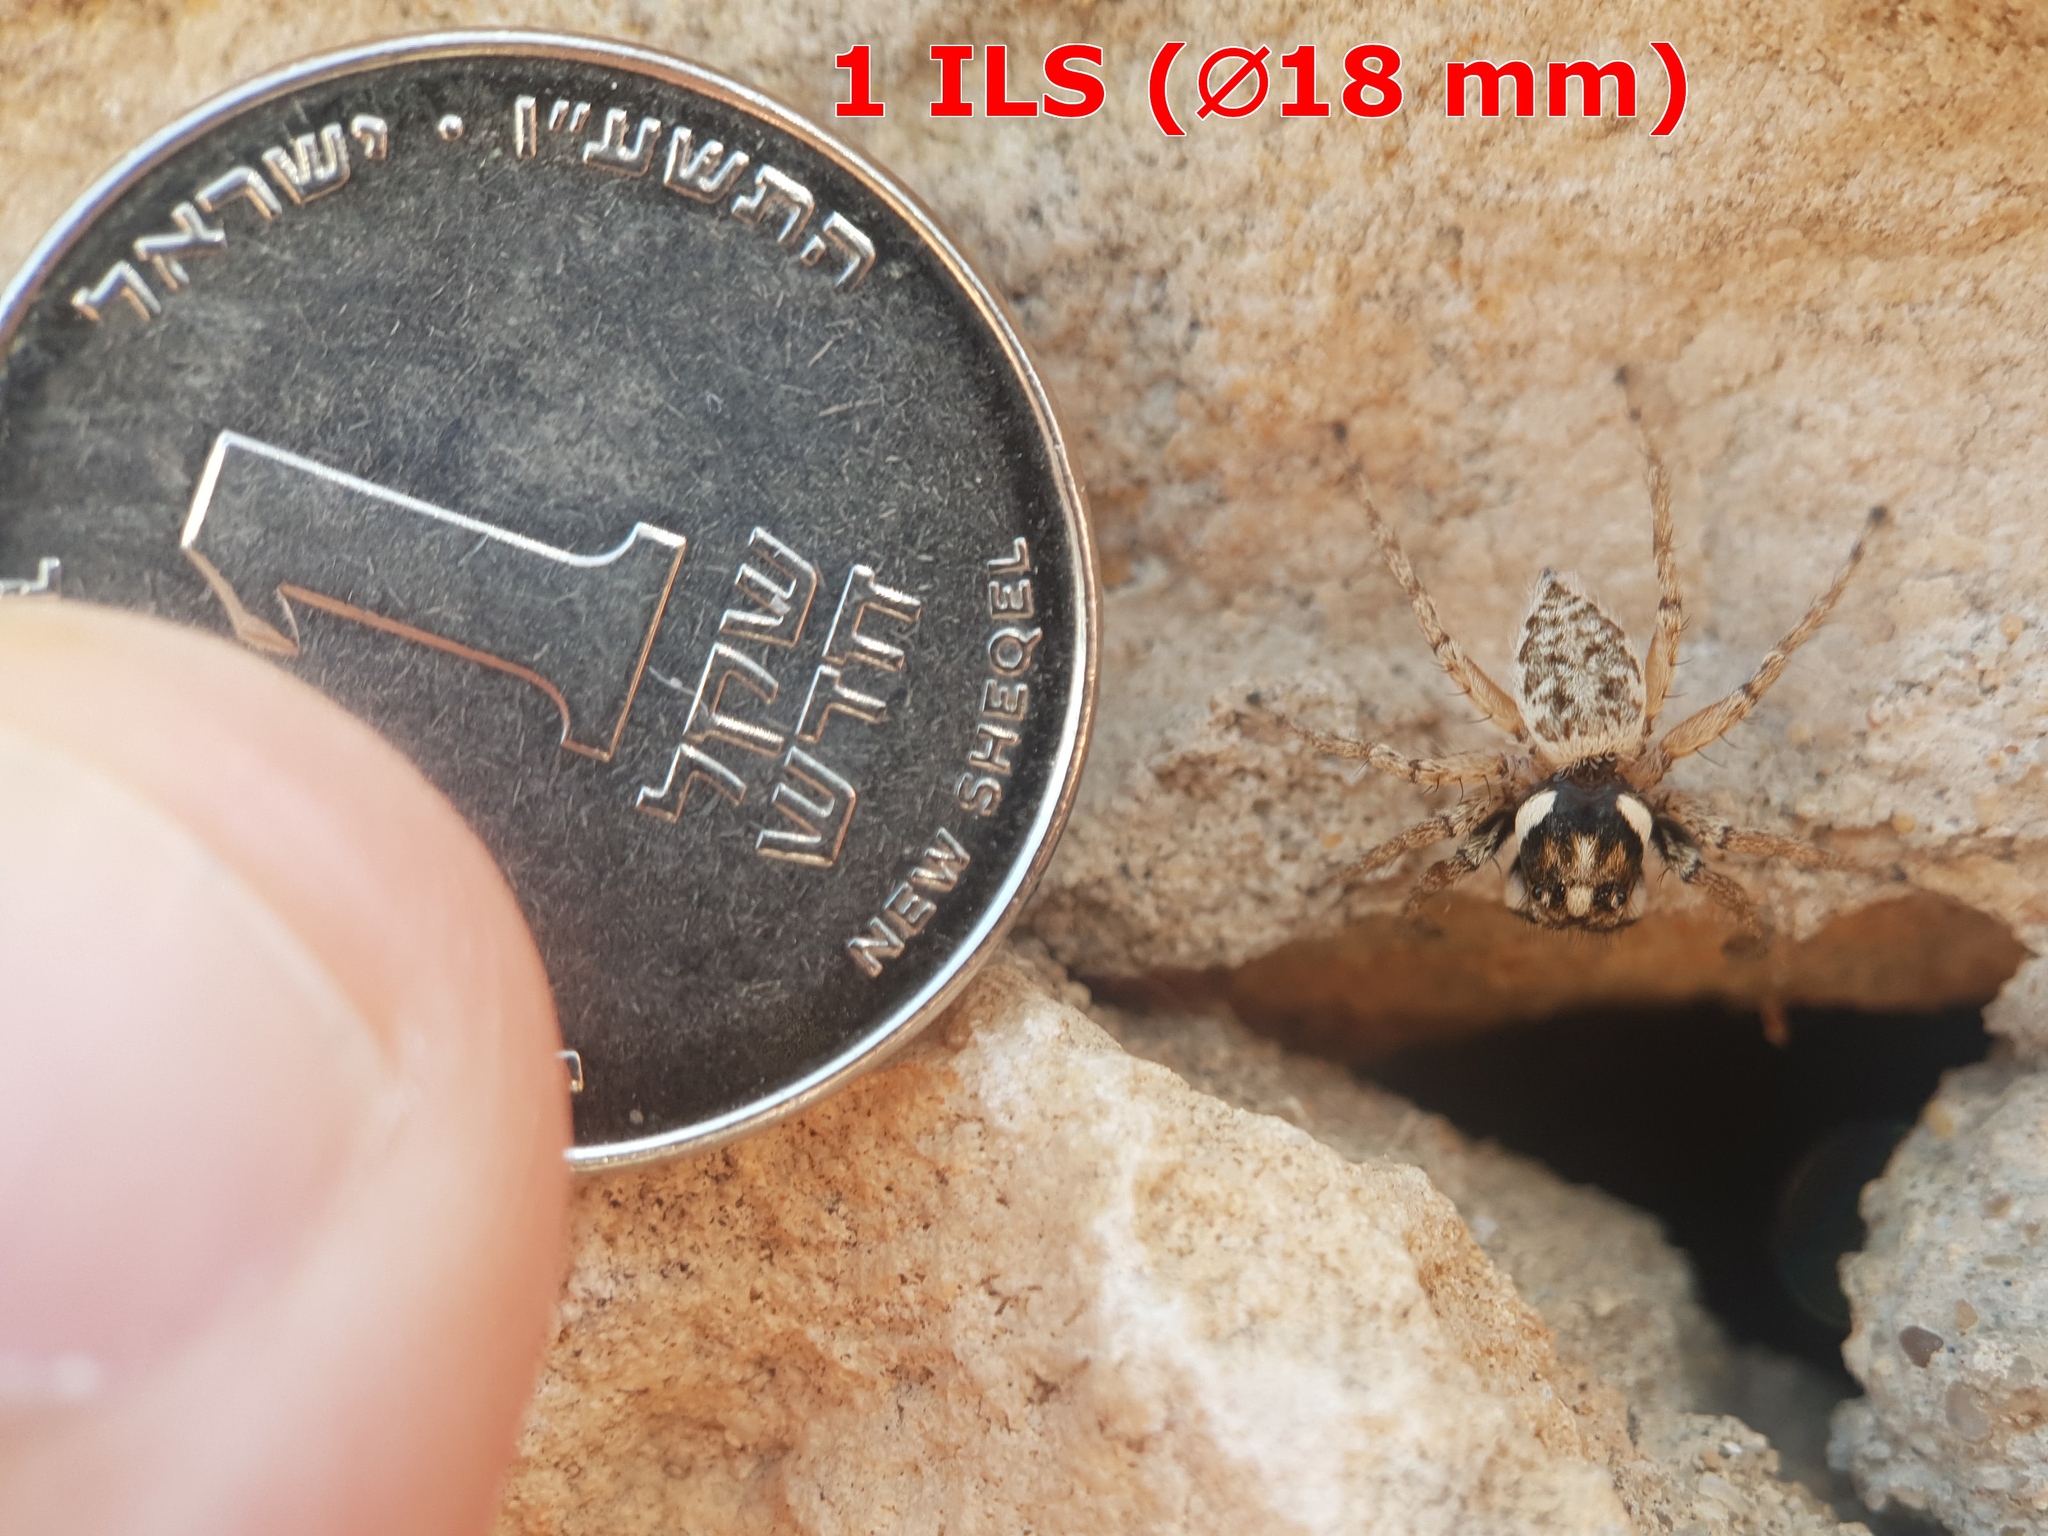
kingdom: Animalia
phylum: Arthropoda
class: Arachnida
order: Araneae
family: Salticidae
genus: Menemerus
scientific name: Menemerus semilimbatus
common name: Jumping spider
